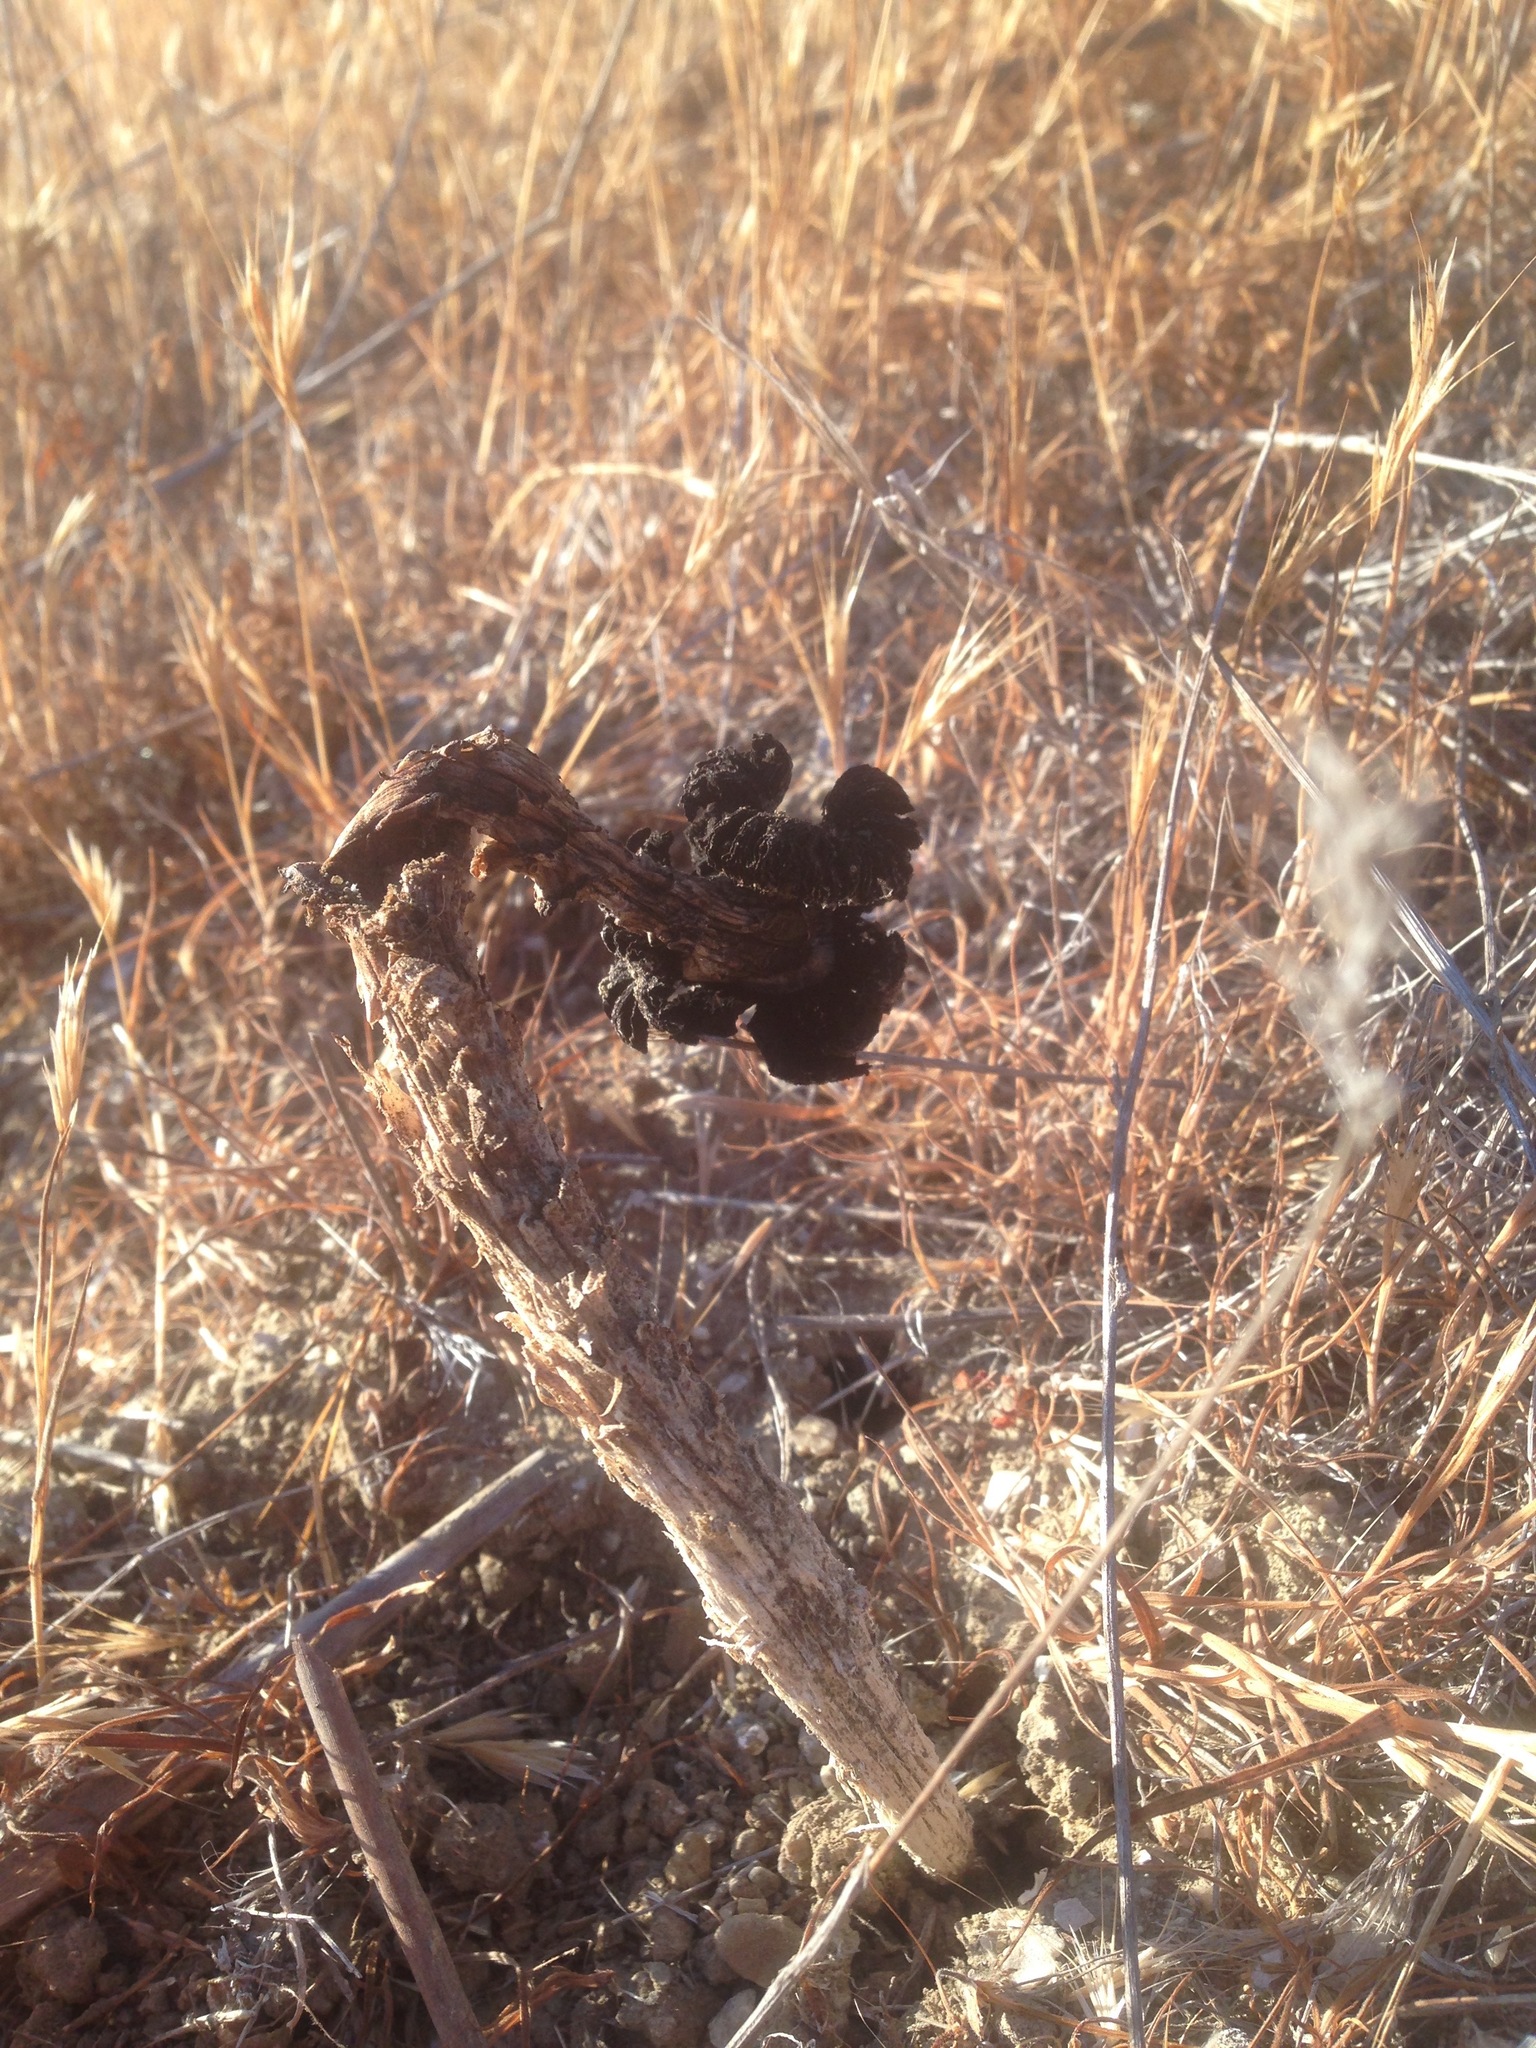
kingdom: Fungi
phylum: Basidiomycota
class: Agaricomycetes
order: Agaricales
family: Agaricaceae
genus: Montagnea
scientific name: Montagnea arenaria
